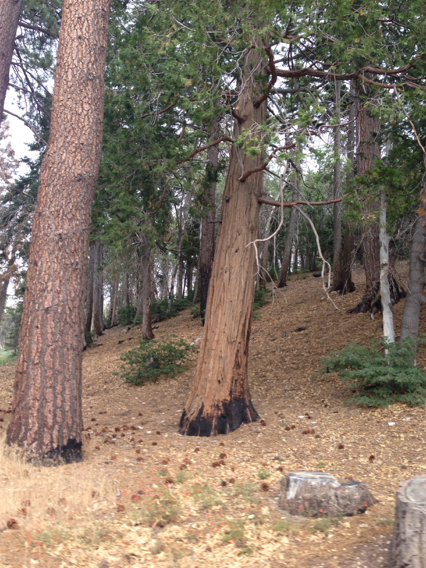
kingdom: Plantae
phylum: Tracheophyta
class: Pinopsida
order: Pinales
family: Cupressaceae
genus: Calocedrus
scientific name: Calocedrus decurrens
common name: Californian incense-cedar
